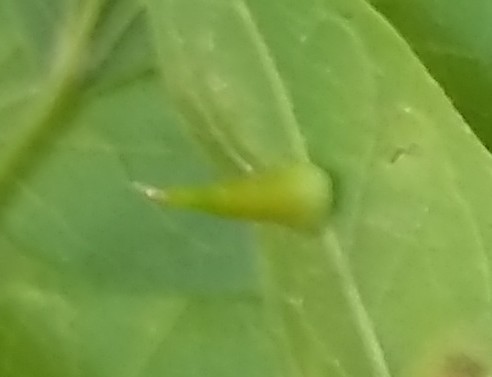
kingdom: Animalia
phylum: Arthropoda
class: Insecta
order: Diptera
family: Cecidomyiidae
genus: Celticecis
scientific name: Celticecis subulata
